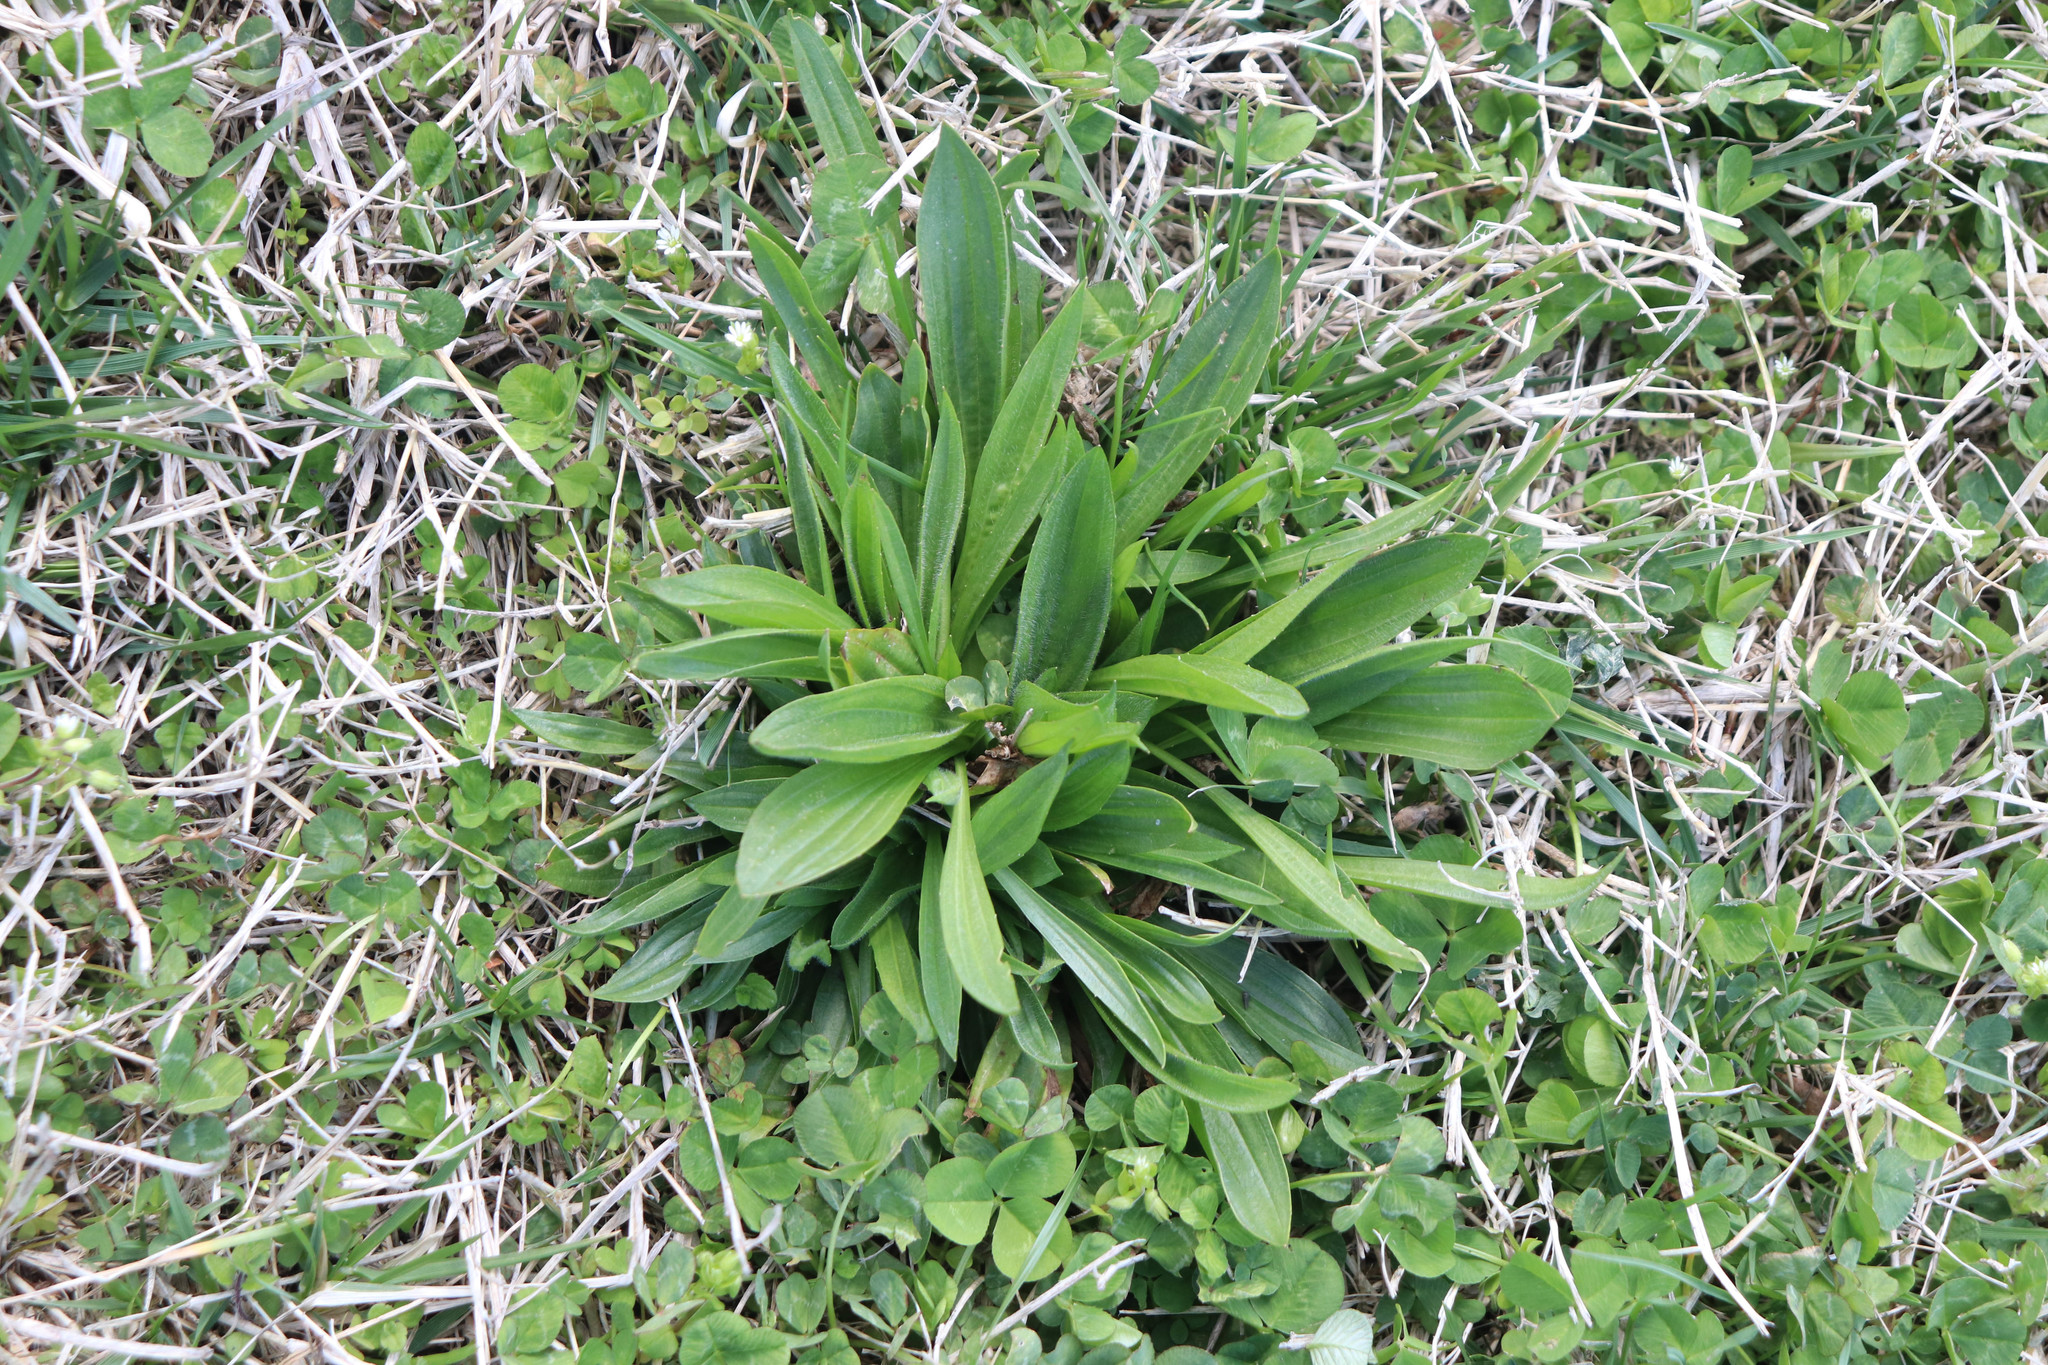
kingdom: Plantae
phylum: Tracheophyta
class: Magnoliopsida
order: Lamiales
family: Plantaginaceae
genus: Plantago
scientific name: Plantago lanceolata
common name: Ribwort plantain
